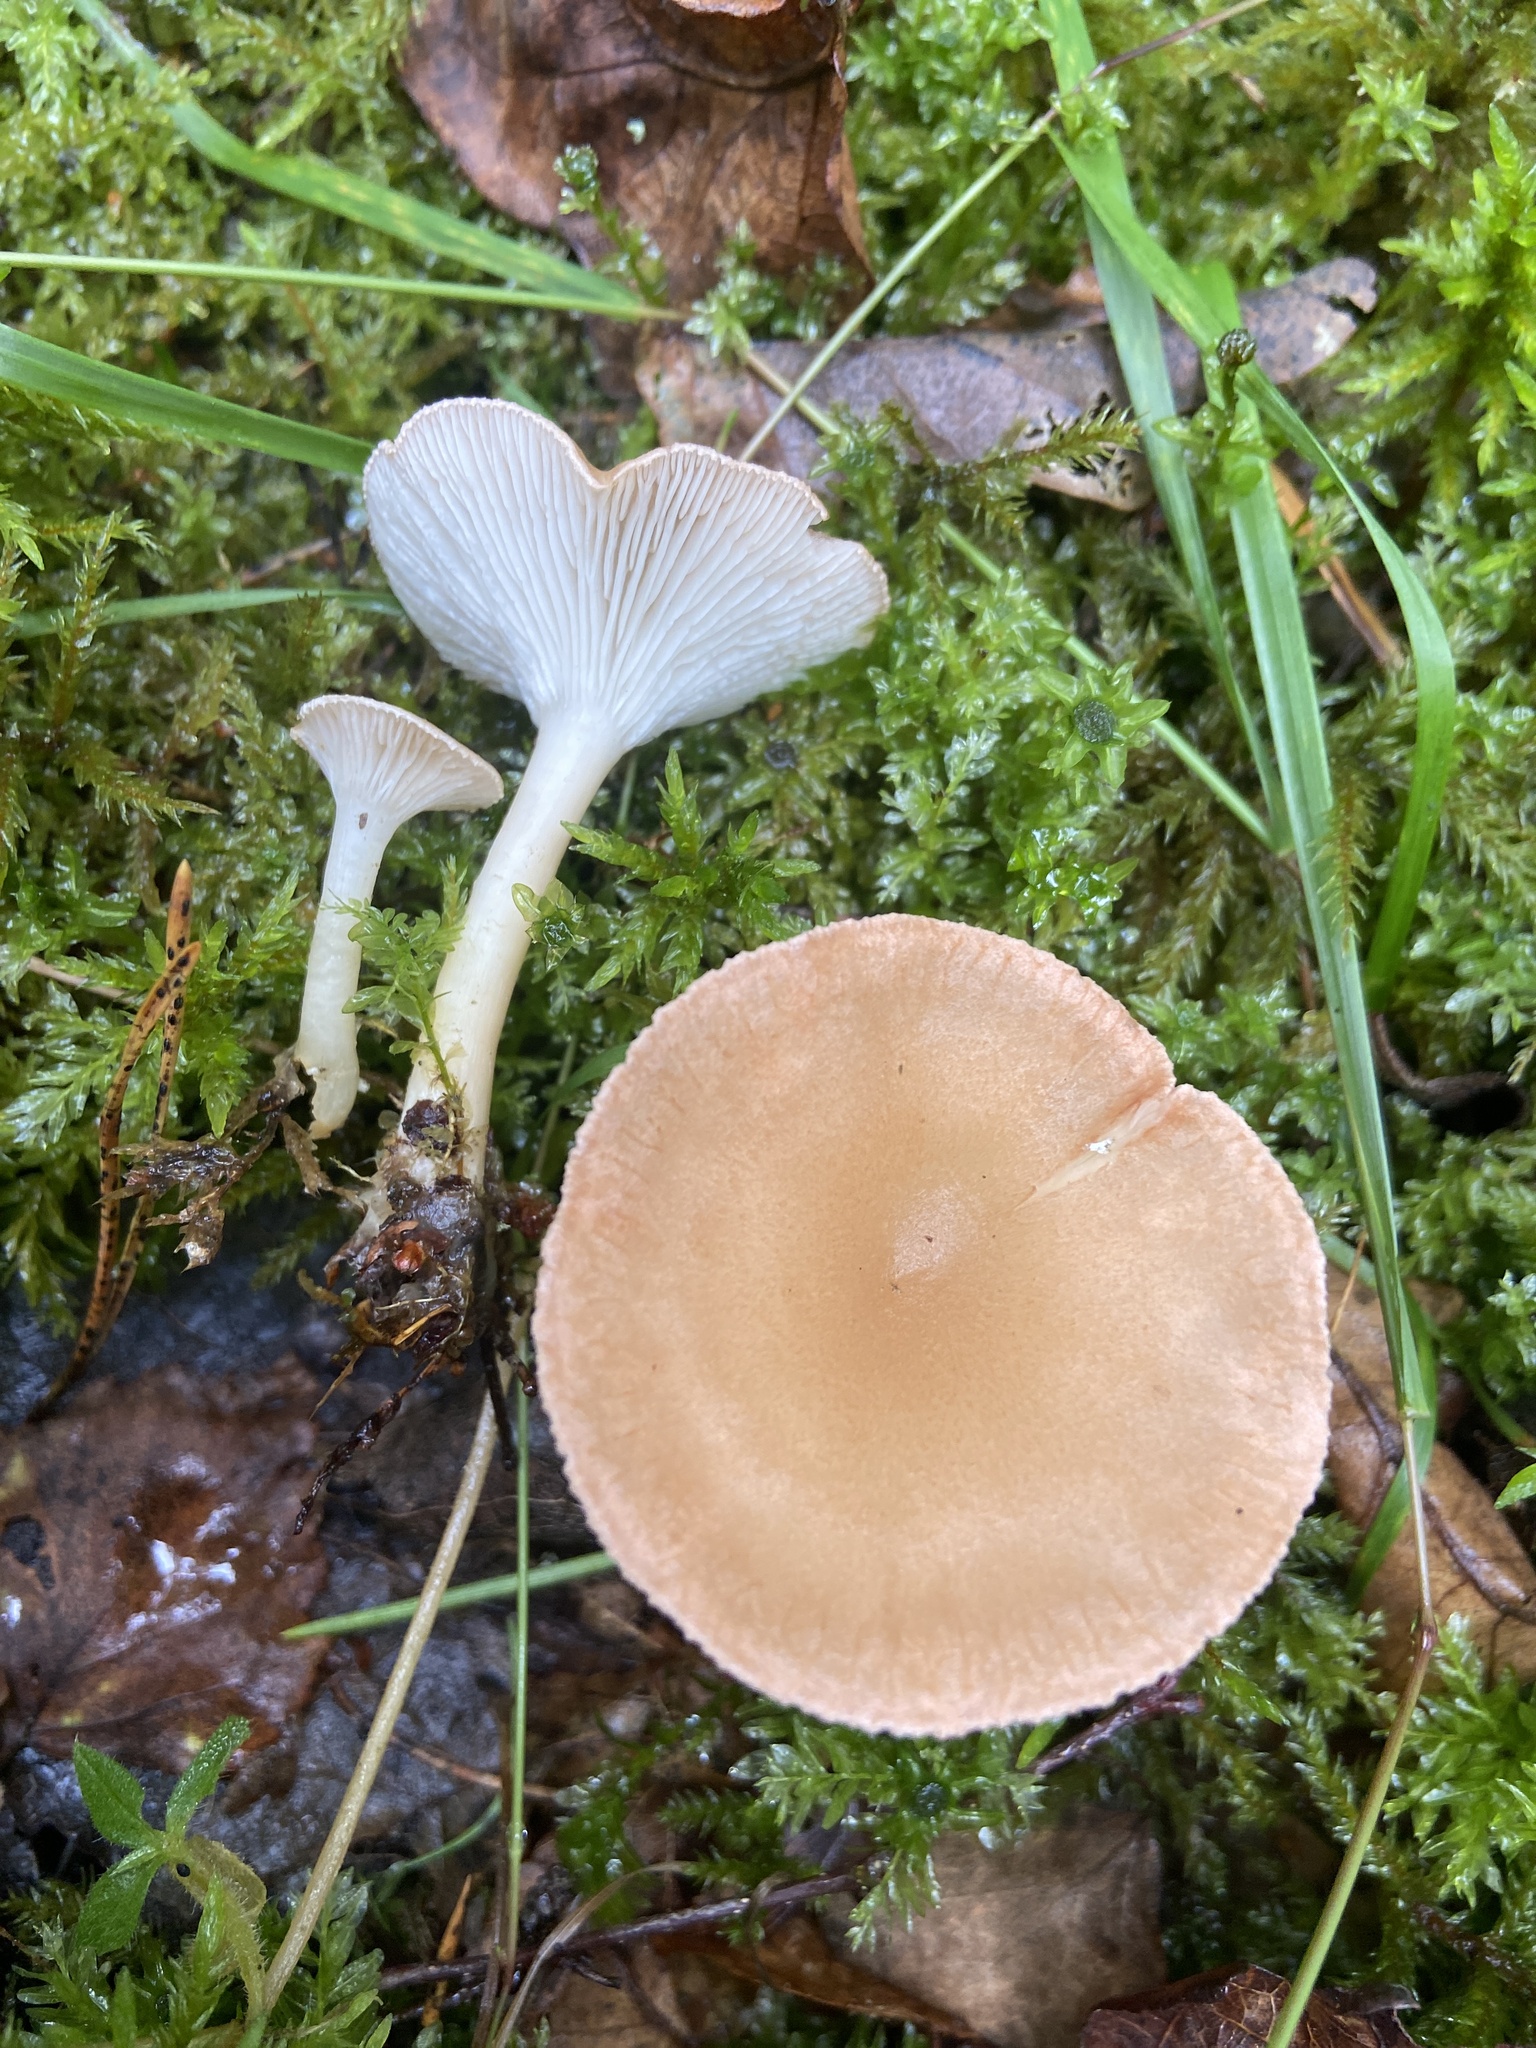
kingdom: Fungi
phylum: Basidiomycota
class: Agaricomycetes
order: Agaricales
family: Tricholomataceae
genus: Infundibulicybe
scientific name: Infundibulicybe gibba
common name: Common funnel
